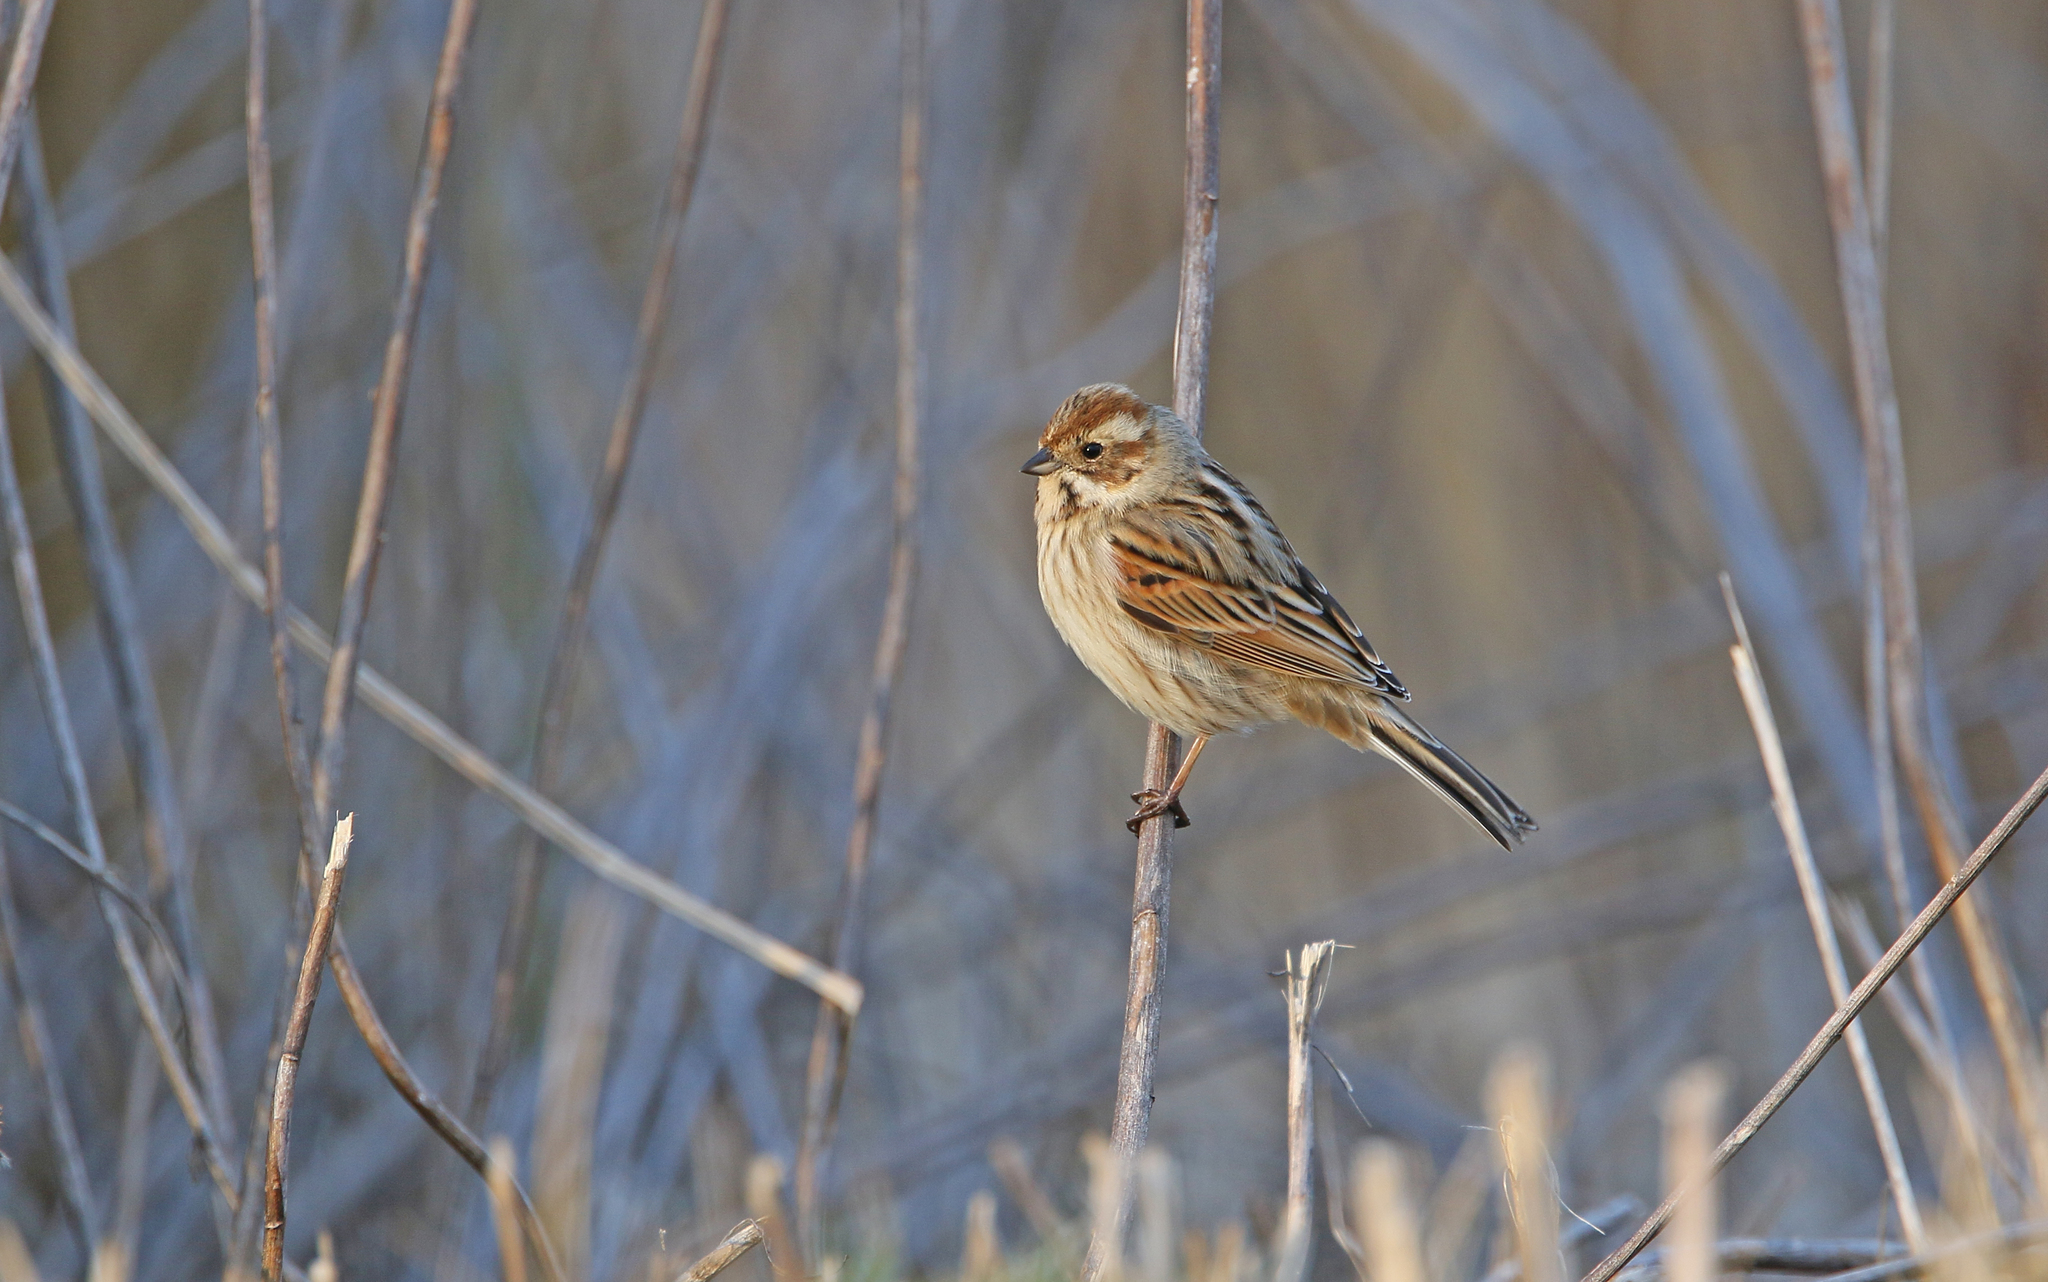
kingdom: Animalia
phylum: Chordata
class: Aves
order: Passeriformes
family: Emberizidae
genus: Emberiza
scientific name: Emberiza schoeniclus
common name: Reed bunting
